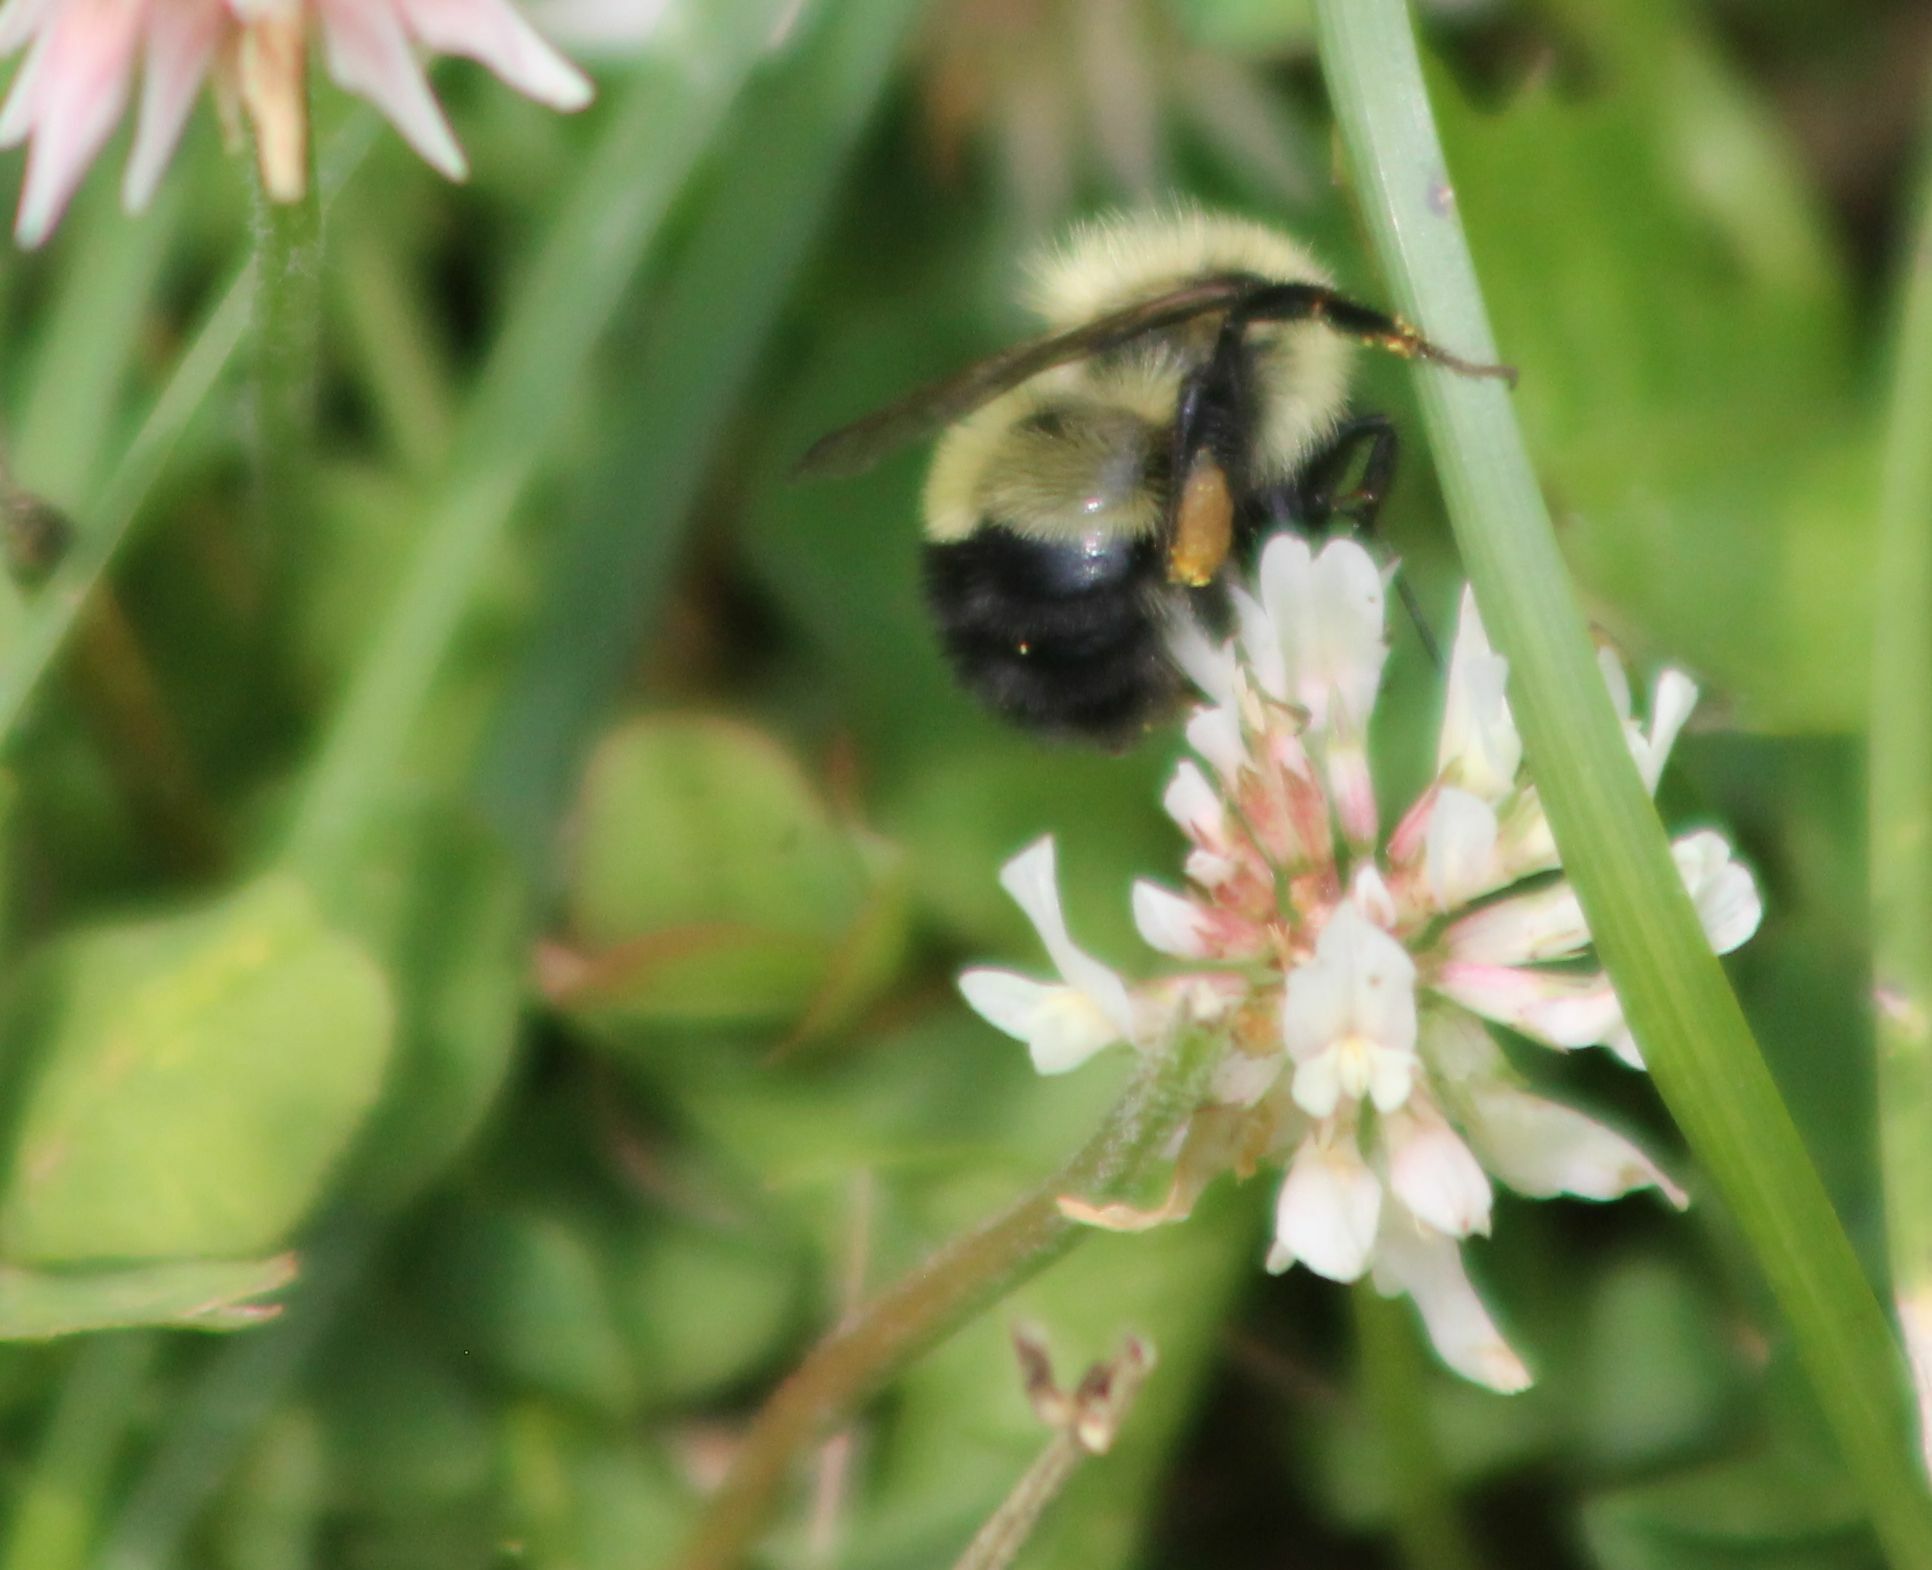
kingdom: Animalia
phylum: Arthropoda
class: Insecta
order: Hymenoptera
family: Apidae
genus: Bombus
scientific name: Bombus vagans
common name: Half-black bumble bee
